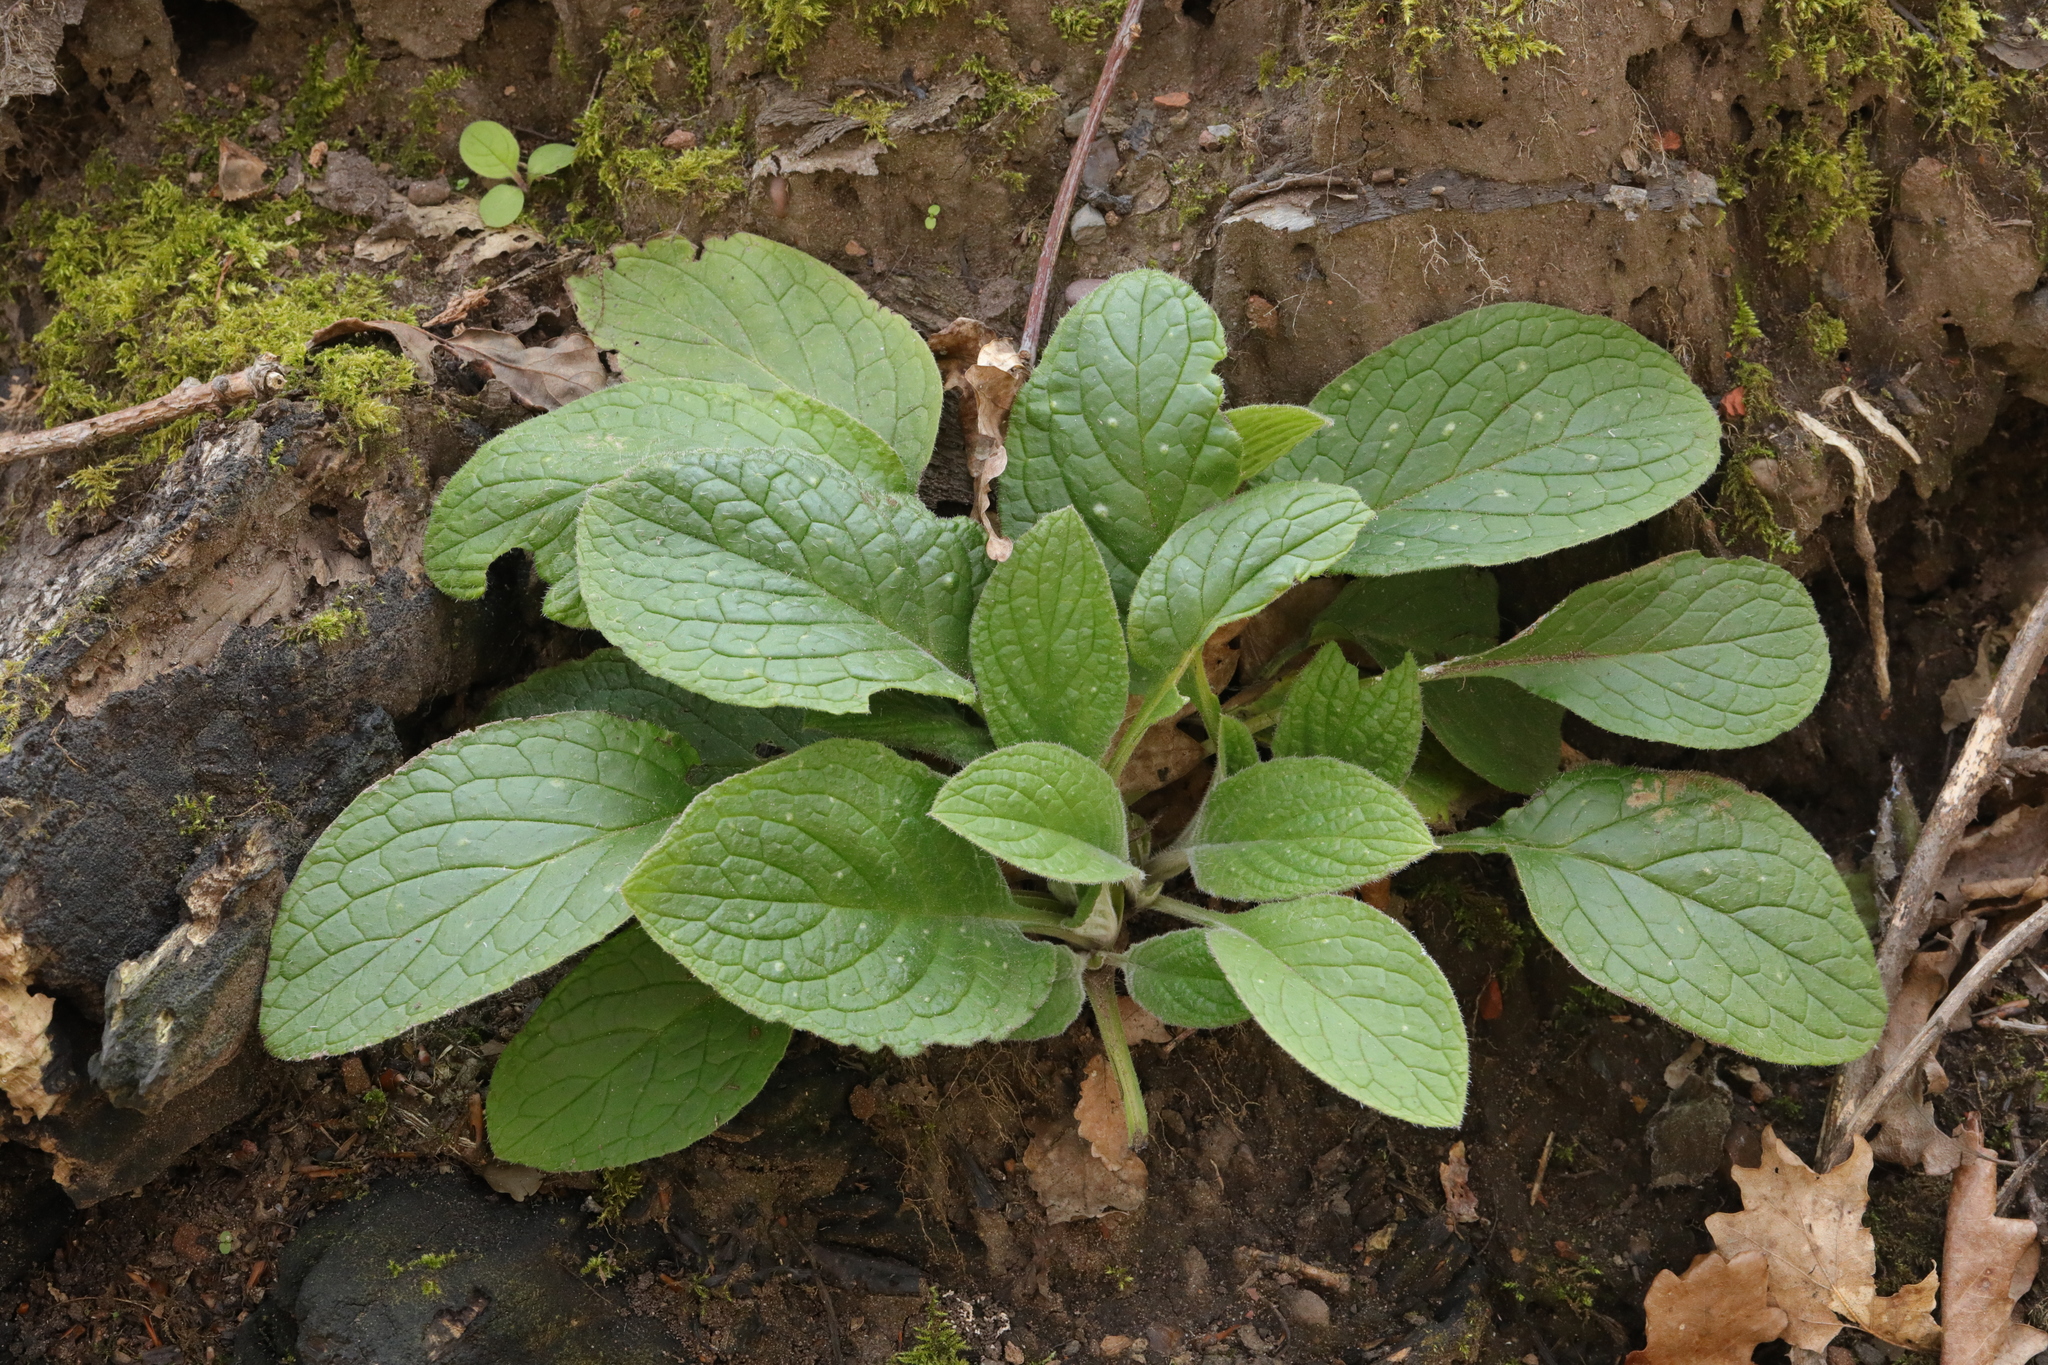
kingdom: Plantae
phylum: Tracheophyta
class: Magnoliopsida
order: Lamiales
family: Plantaginaceae
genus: Digitalis
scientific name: Digitalis purpurea
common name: Foxglove
